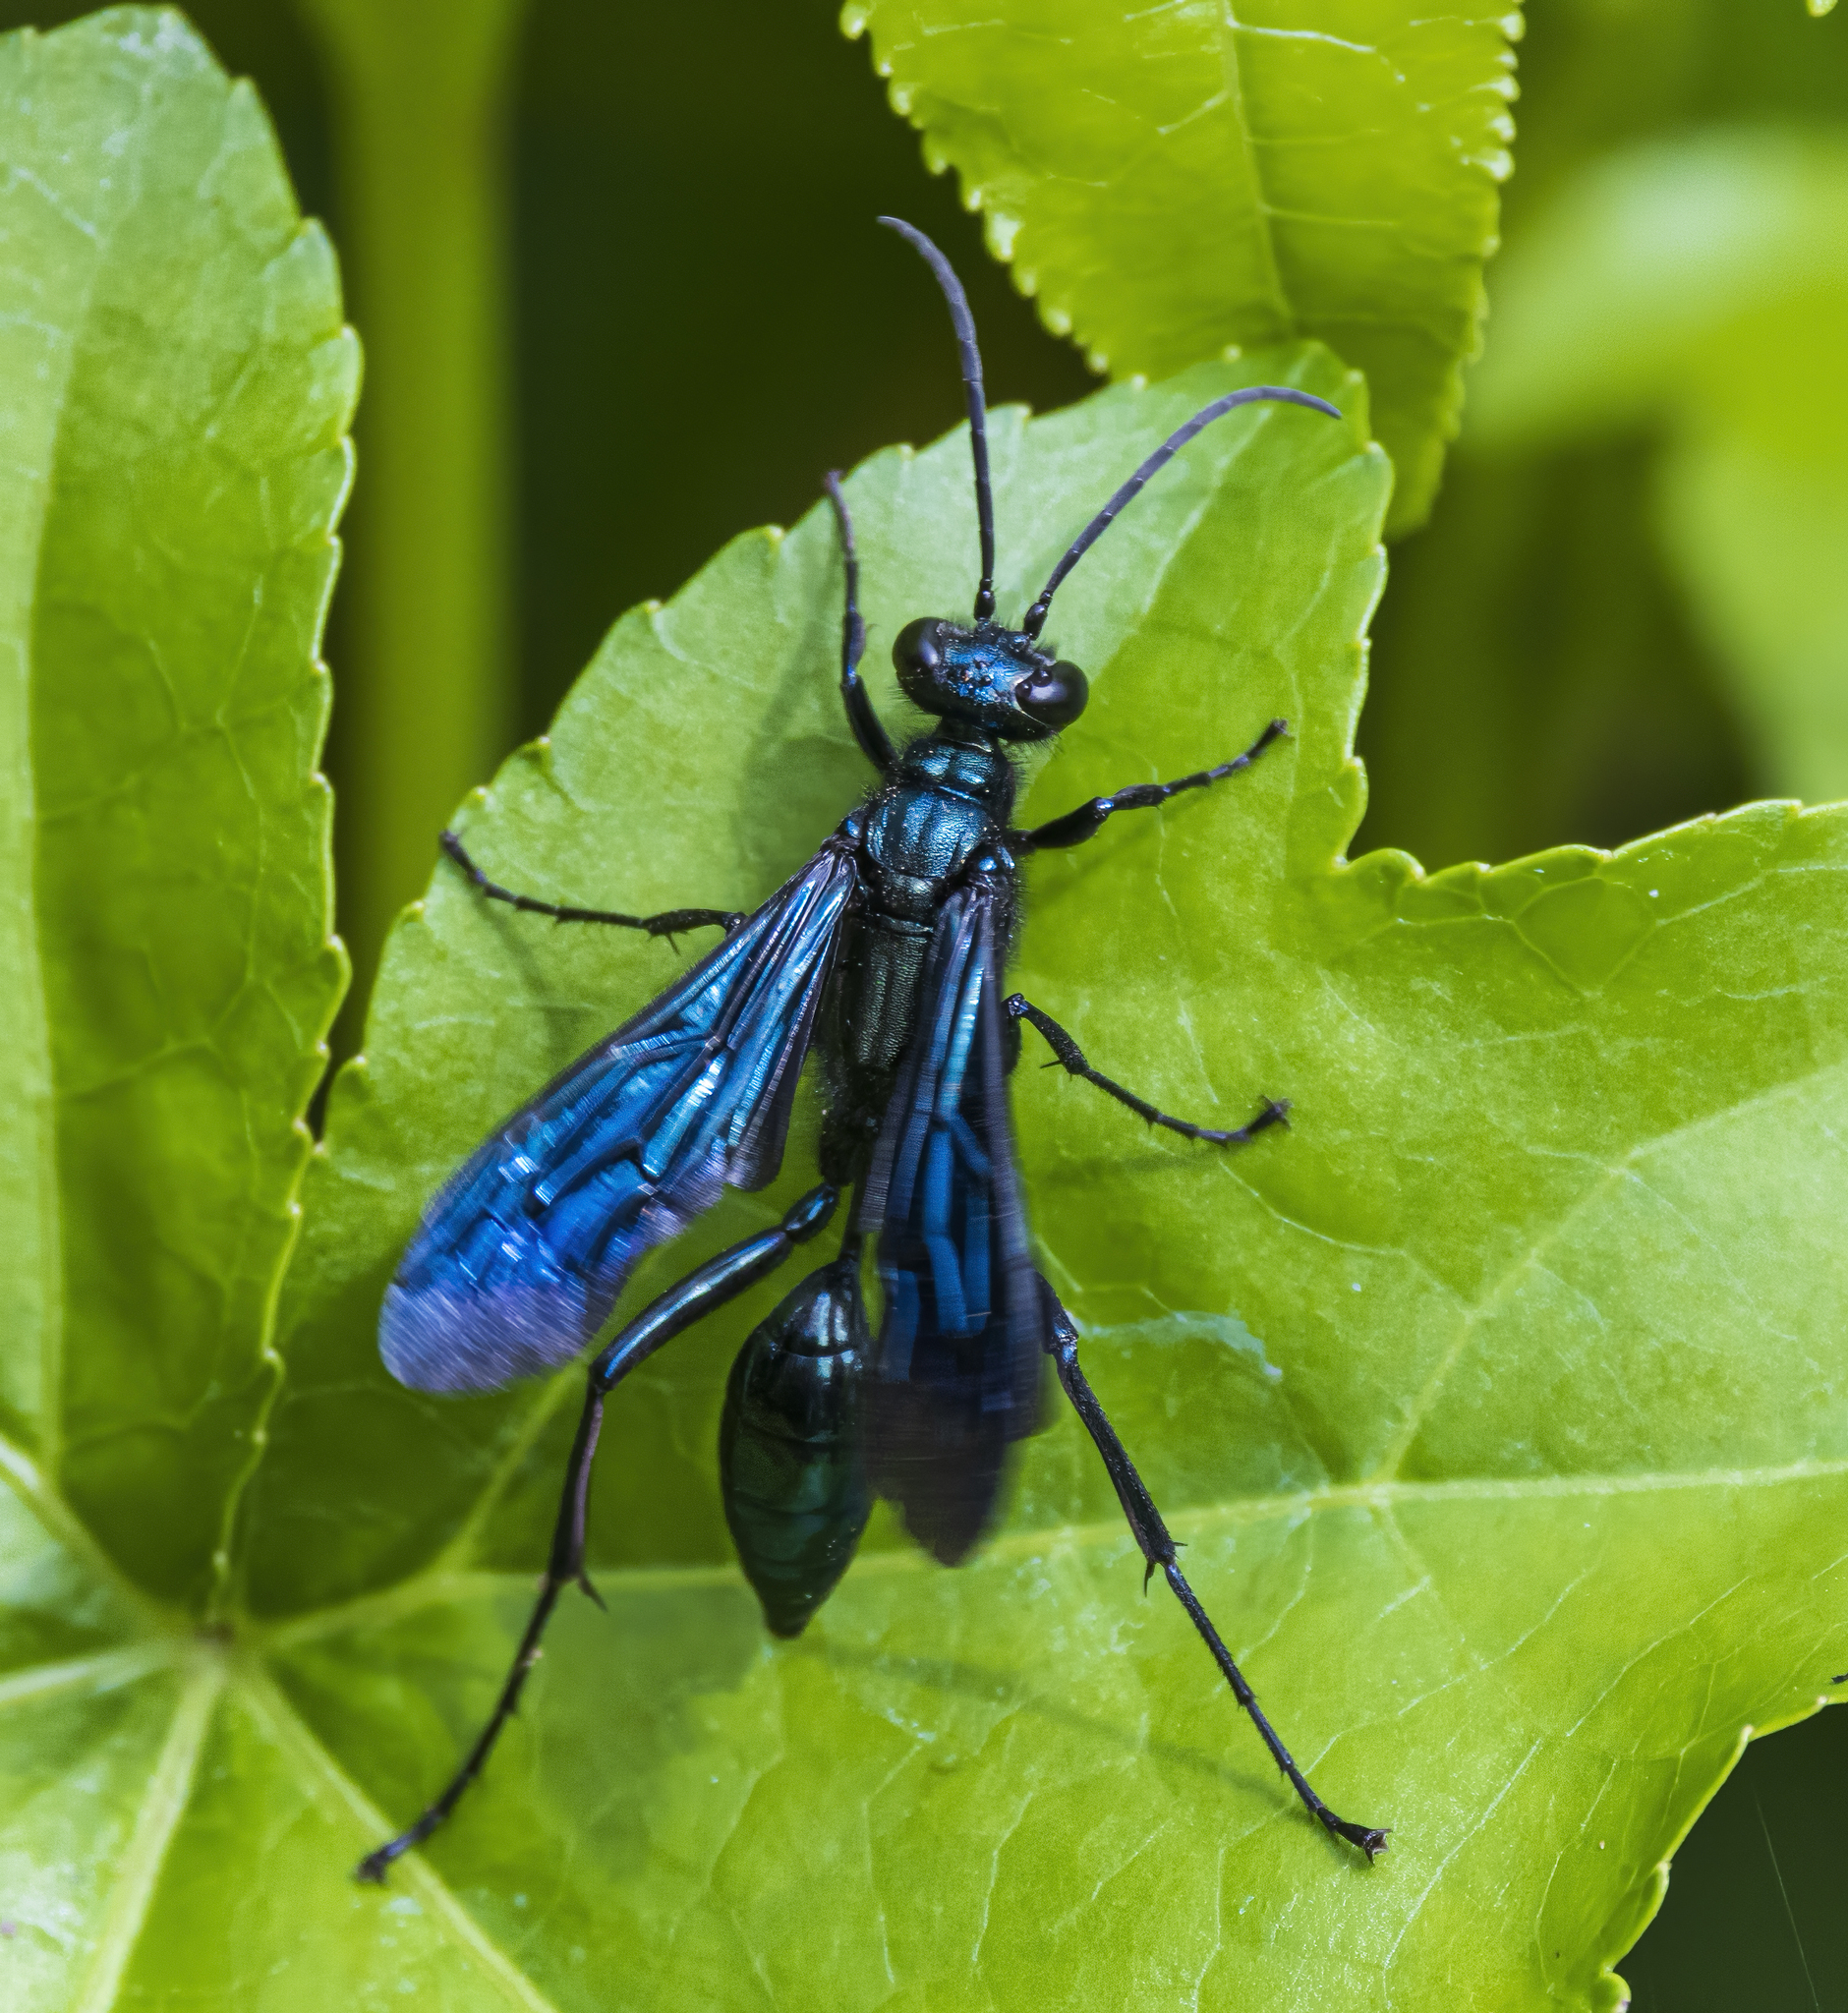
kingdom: Animalia
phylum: Arthropoda
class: Insecta
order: Hymenoptera
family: Sphecidae
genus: Chalybion
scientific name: Chalybion californicum
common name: Mud dauber
